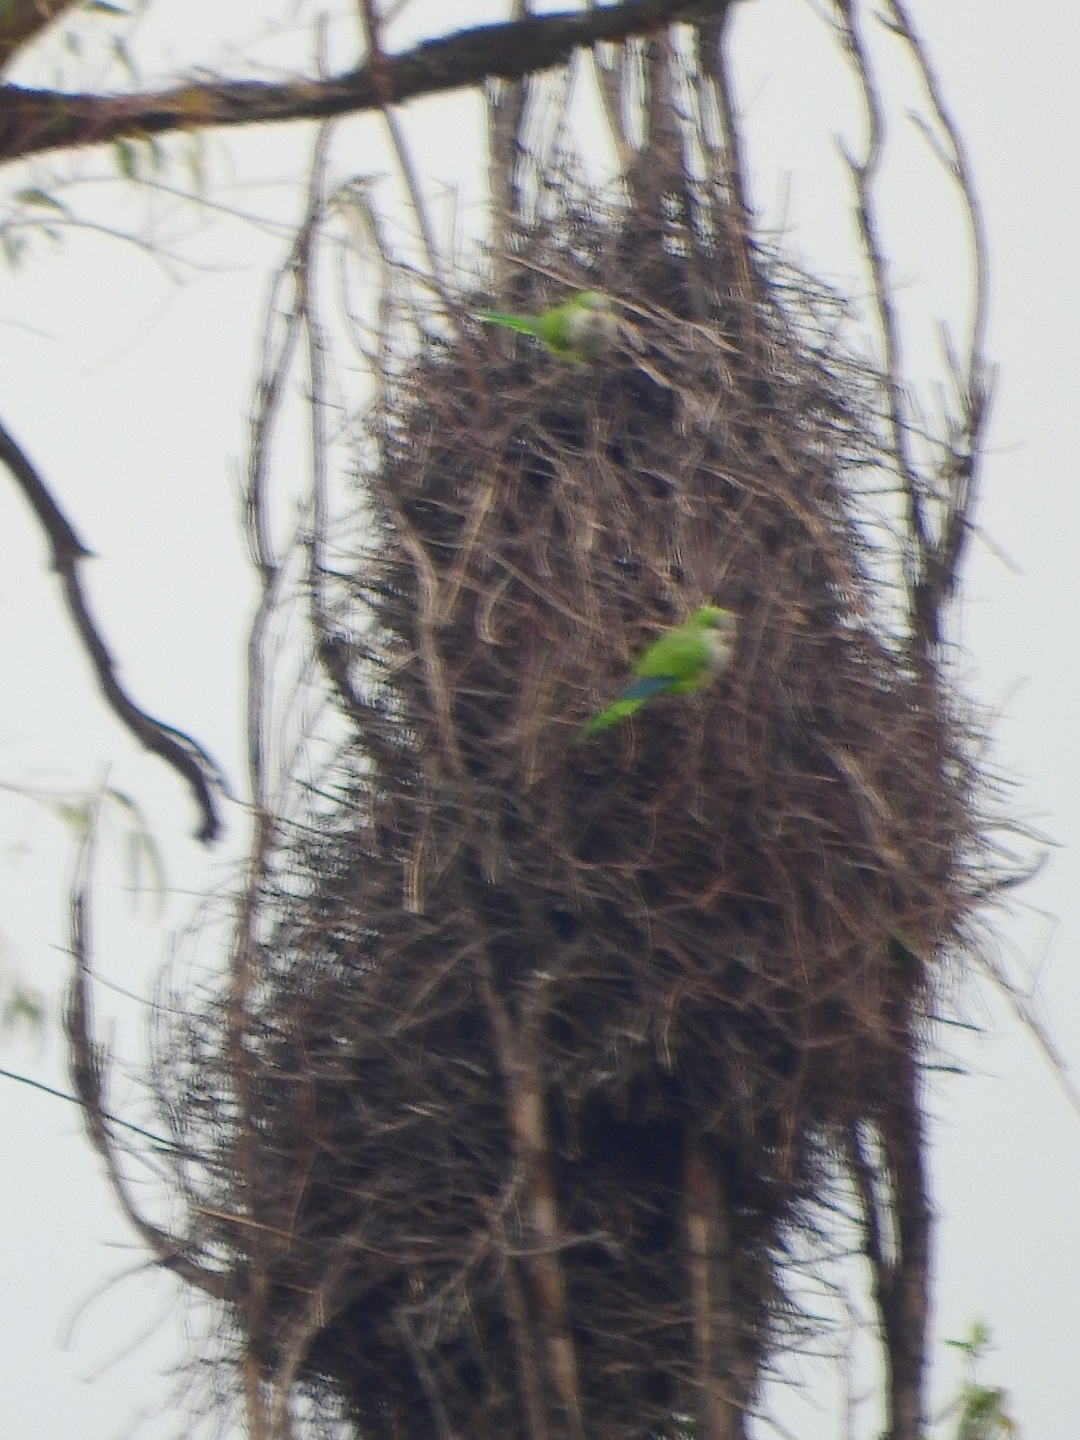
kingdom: Animalia
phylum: Chordata
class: Aves
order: Psittaciformes
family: Psittacidae
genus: Myiopsitta
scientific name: Myiopsitta monachus
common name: Monk parakeet
